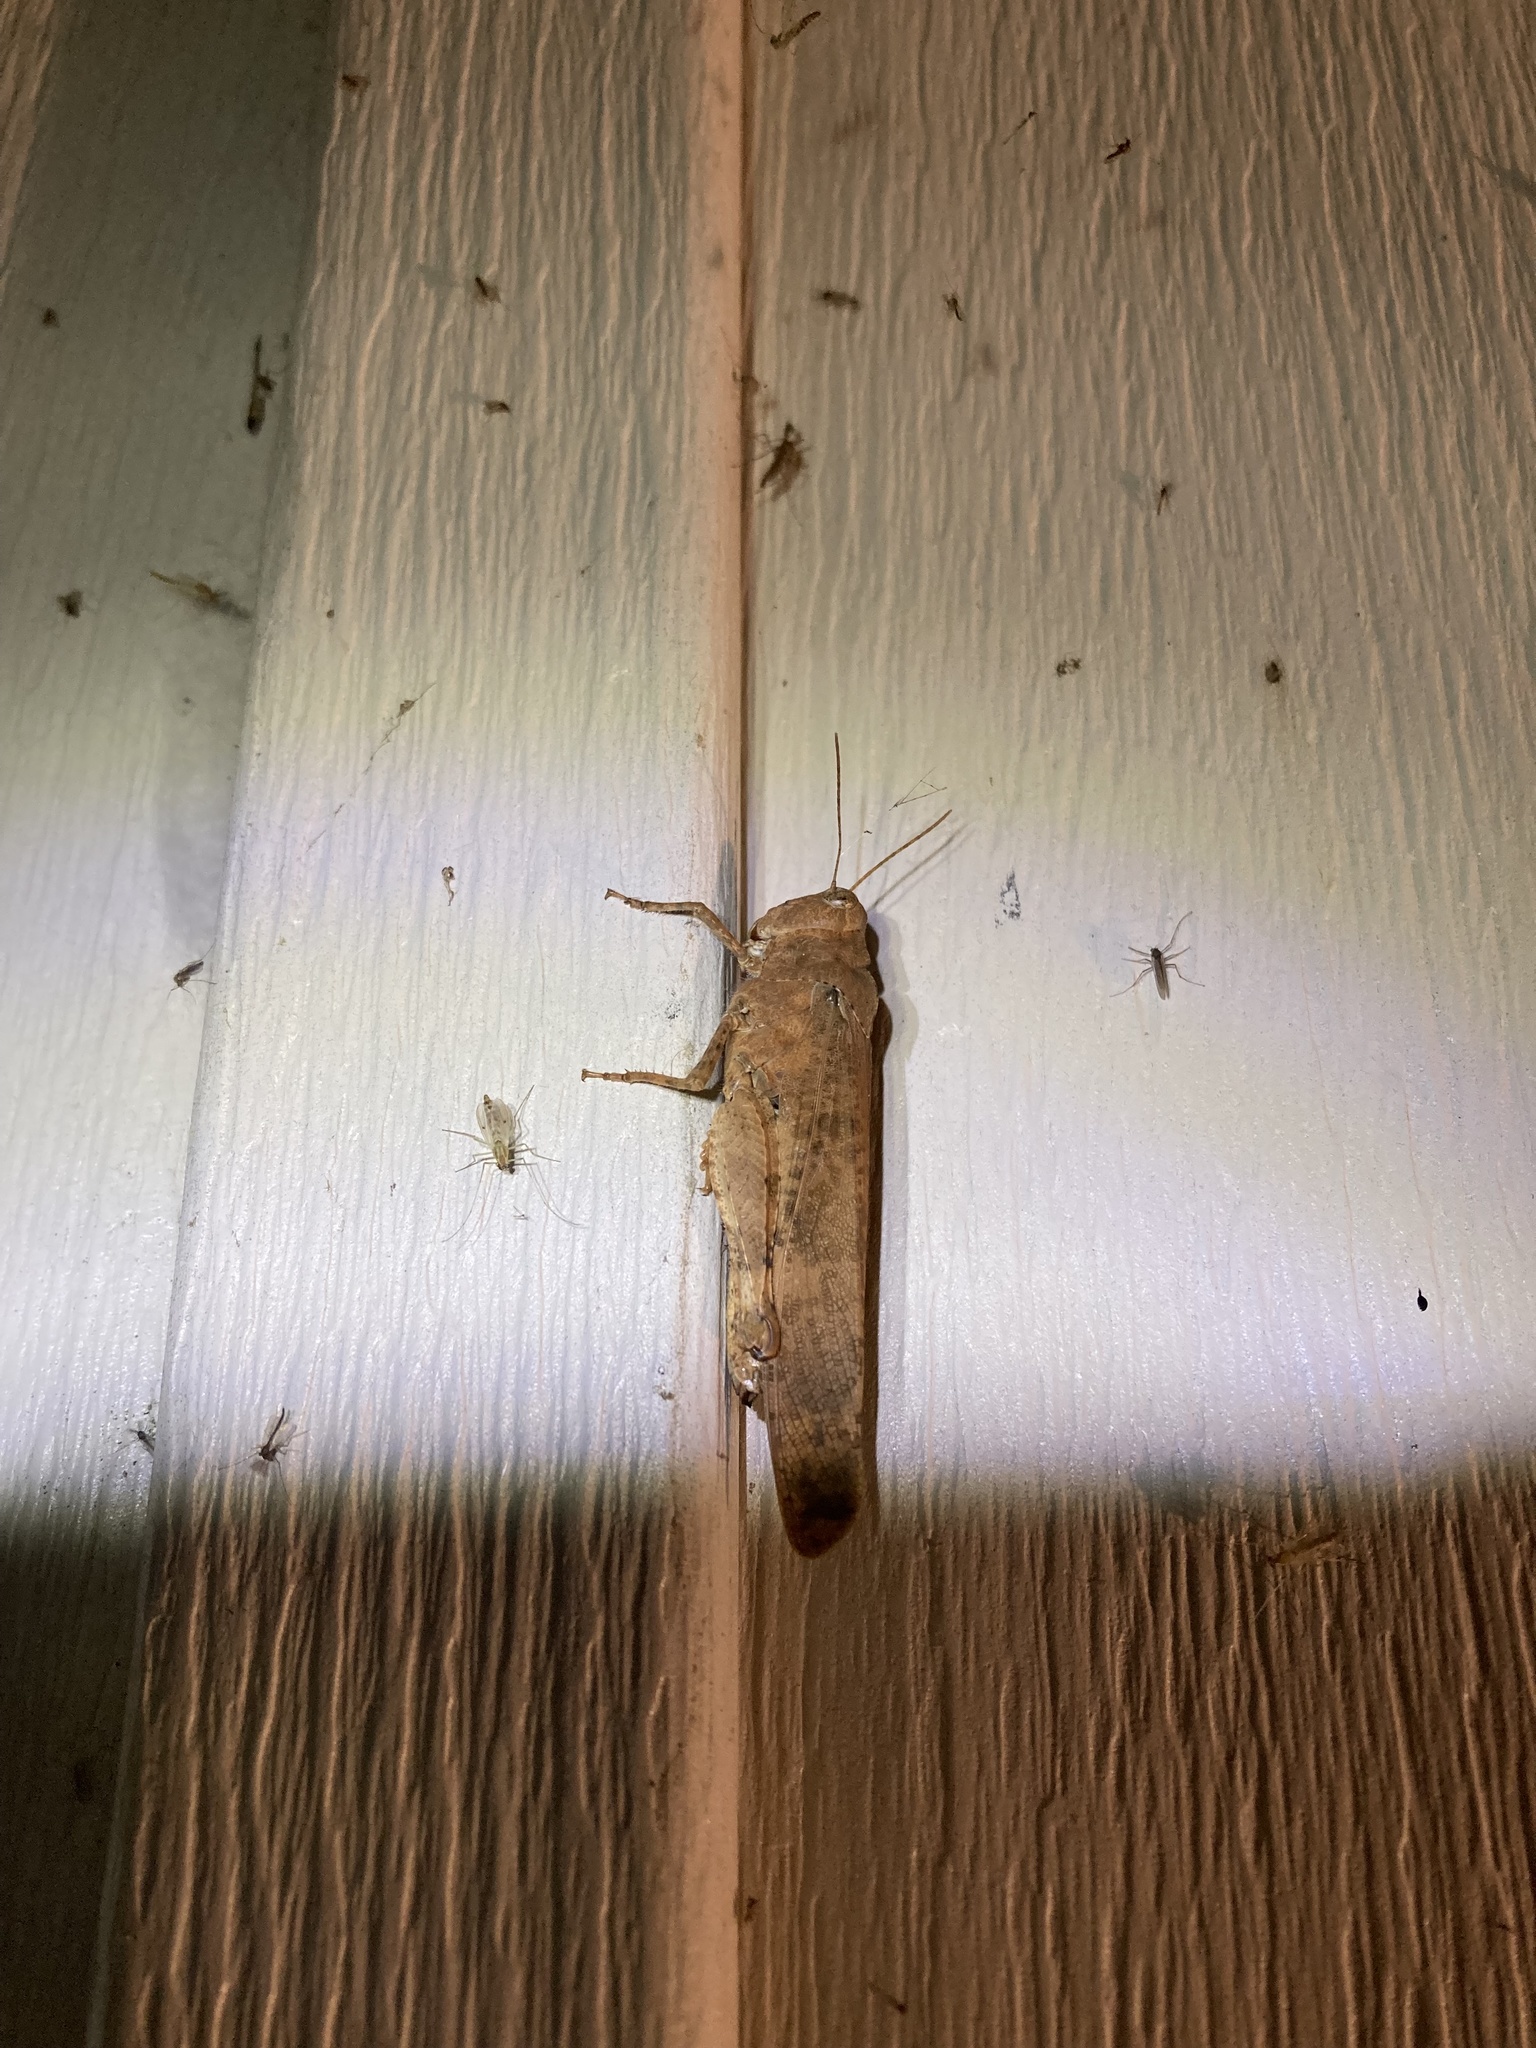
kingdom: Animalia
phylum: Arthropoda
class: Insecta
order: Orthoptera
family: Acrididae
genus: Dissosteira
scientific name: Dissosteira carolina
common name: Carolina grasshopper
